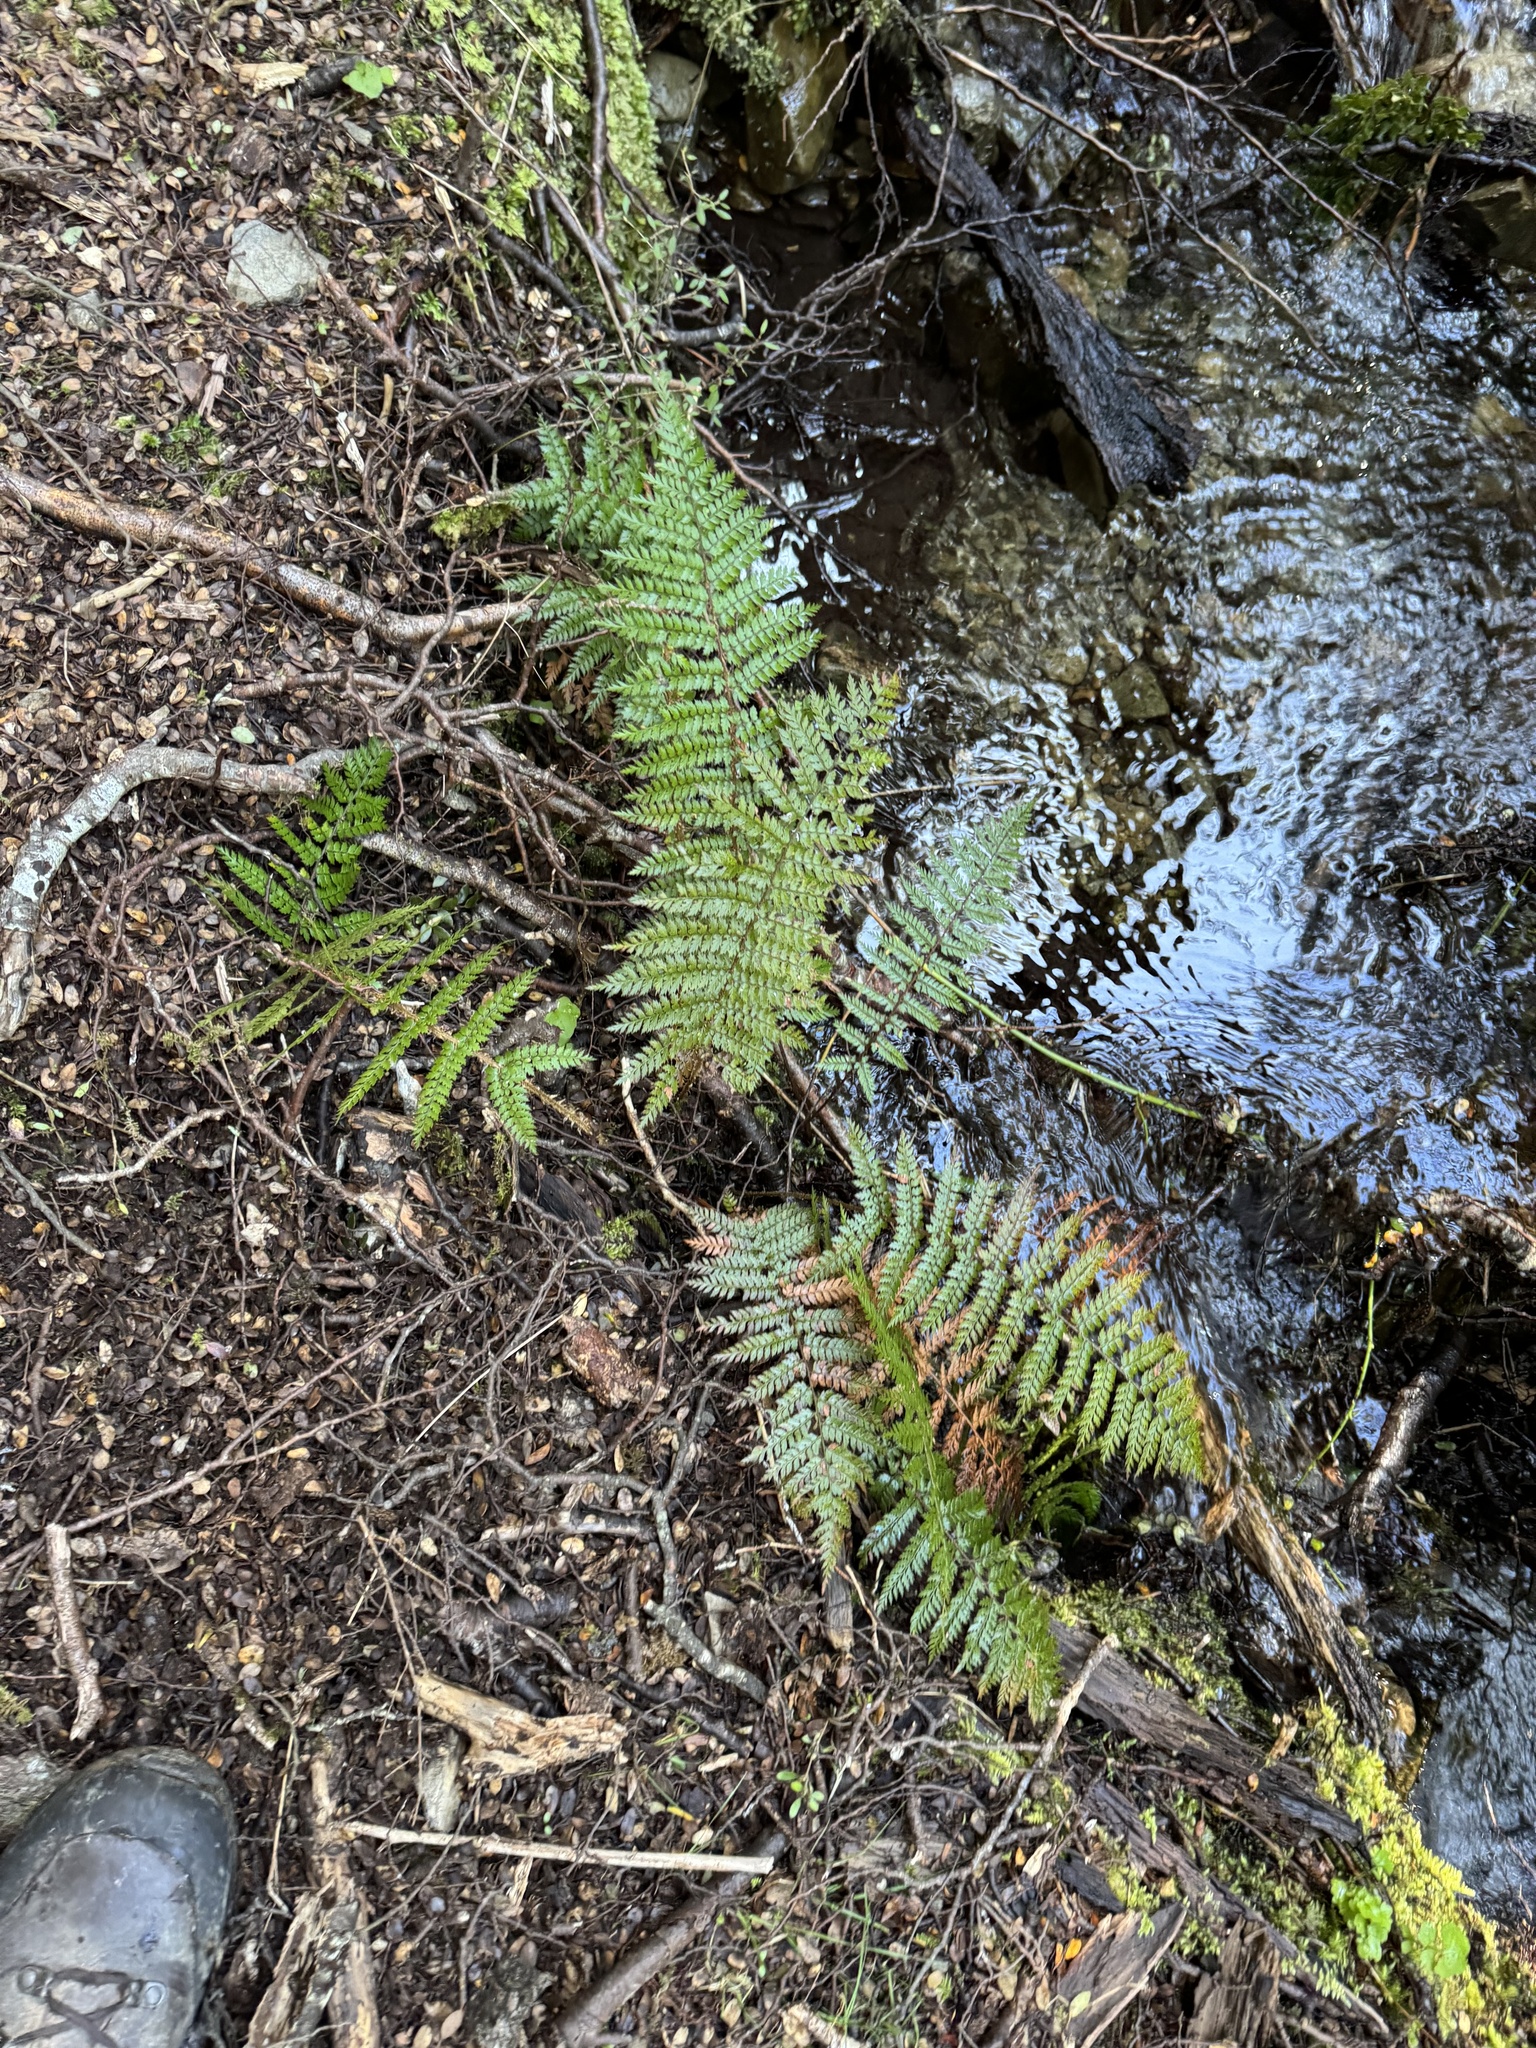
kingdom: Plantae
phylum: Tracheophyta
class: Polypodiopsida
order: Polypodiales
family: Dryopteridaceae
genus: Polystichum
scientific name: Polystichum vestitum
